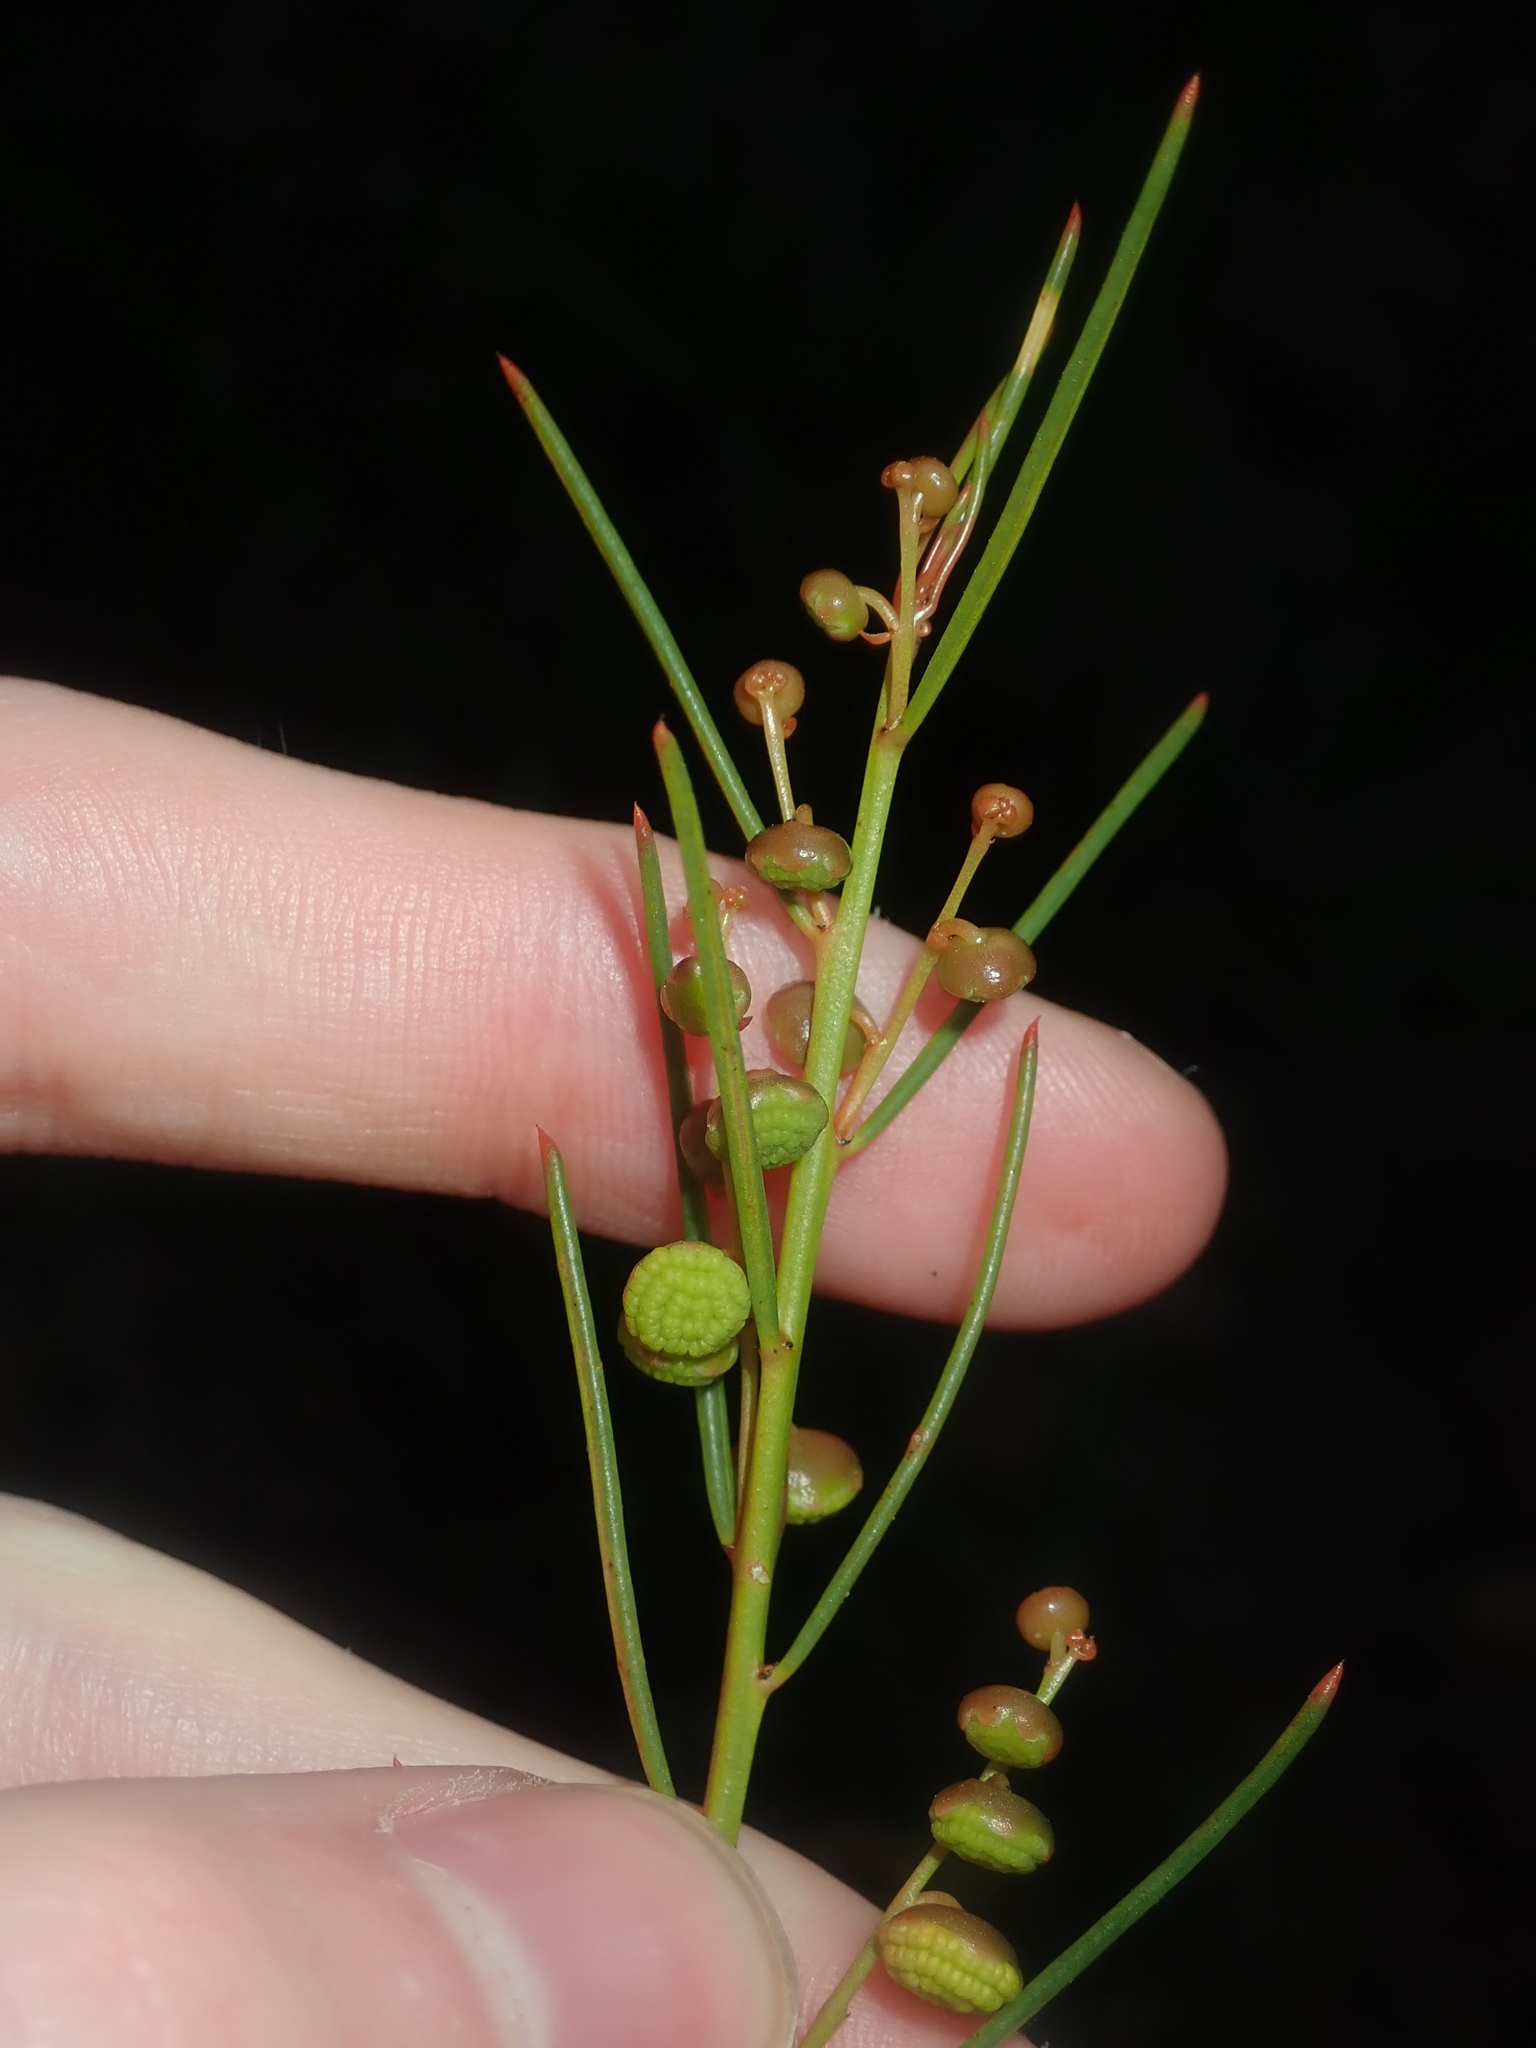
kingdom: Plantae
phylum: Tracheophyta
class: Magnoliopsida
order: Brassicales
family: Gyrostemonaceae
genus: Gyrostemon
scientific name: Gyrostemon racemiger
